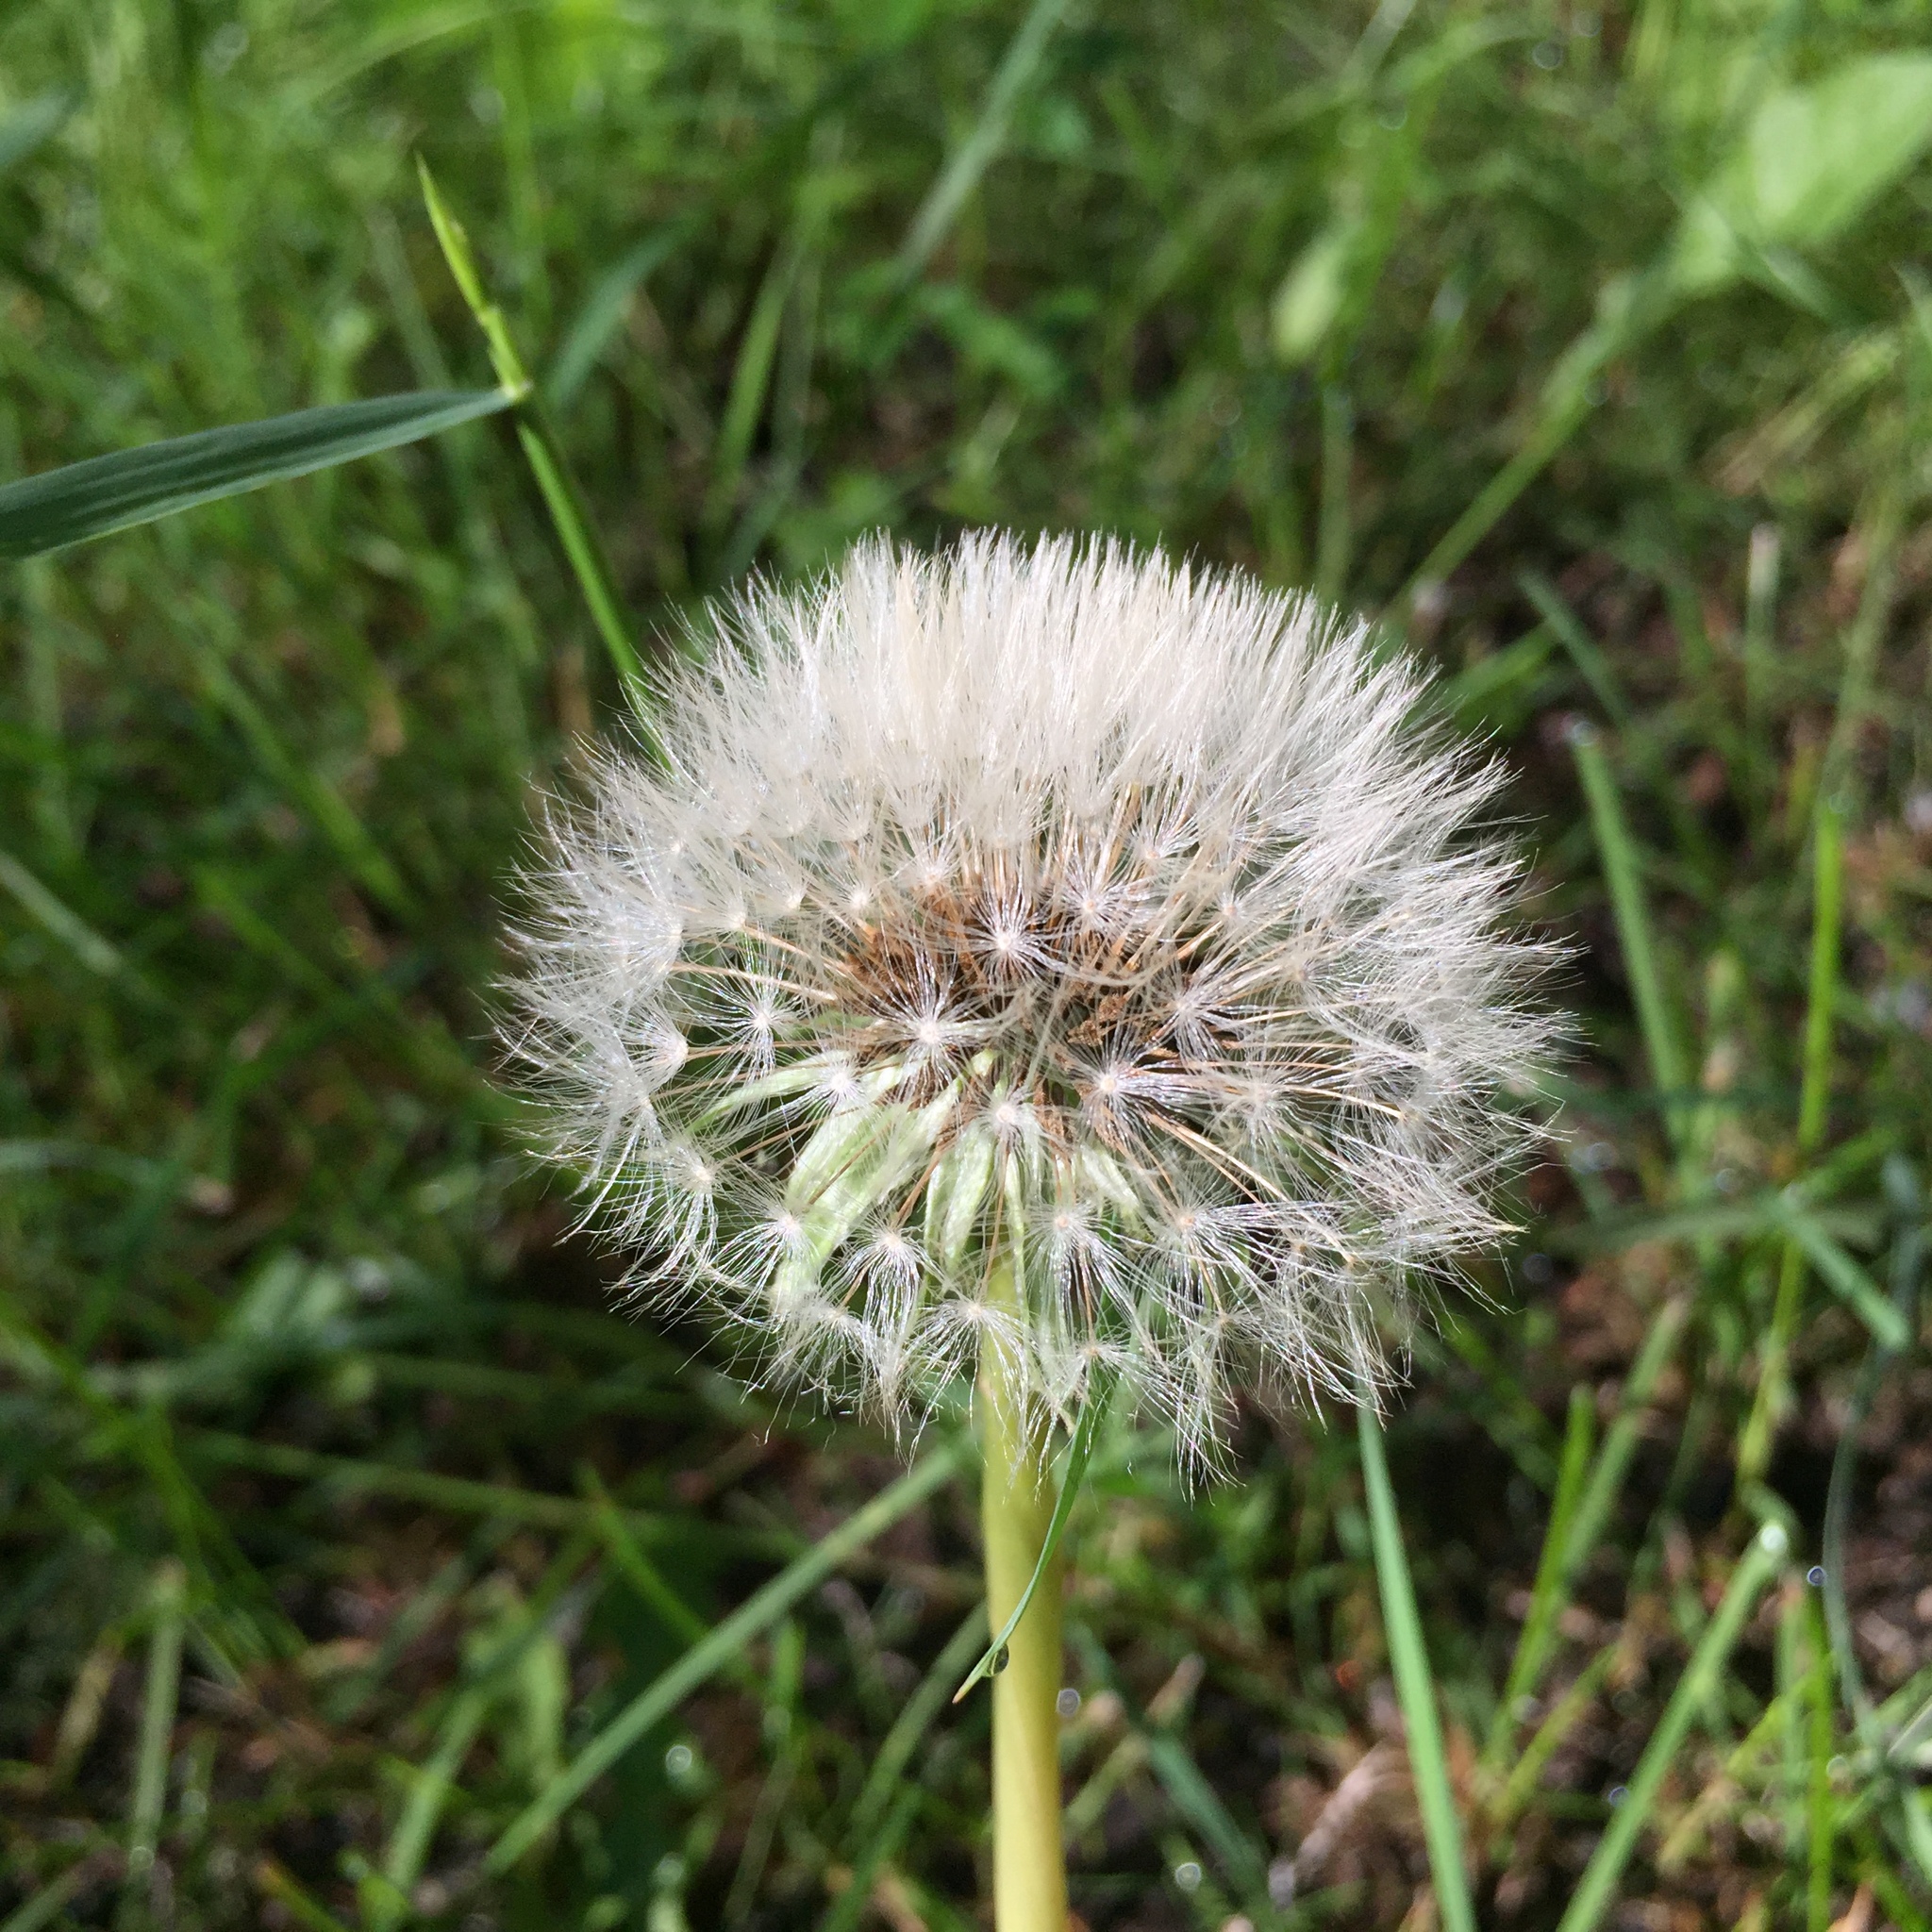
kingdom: Plantae
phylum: Tracheophyta
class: Magnoliopsida
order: Asterales
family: Asteraceae
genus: Taraxacum
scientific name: Taraxacum officinale
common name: Common dandelion
